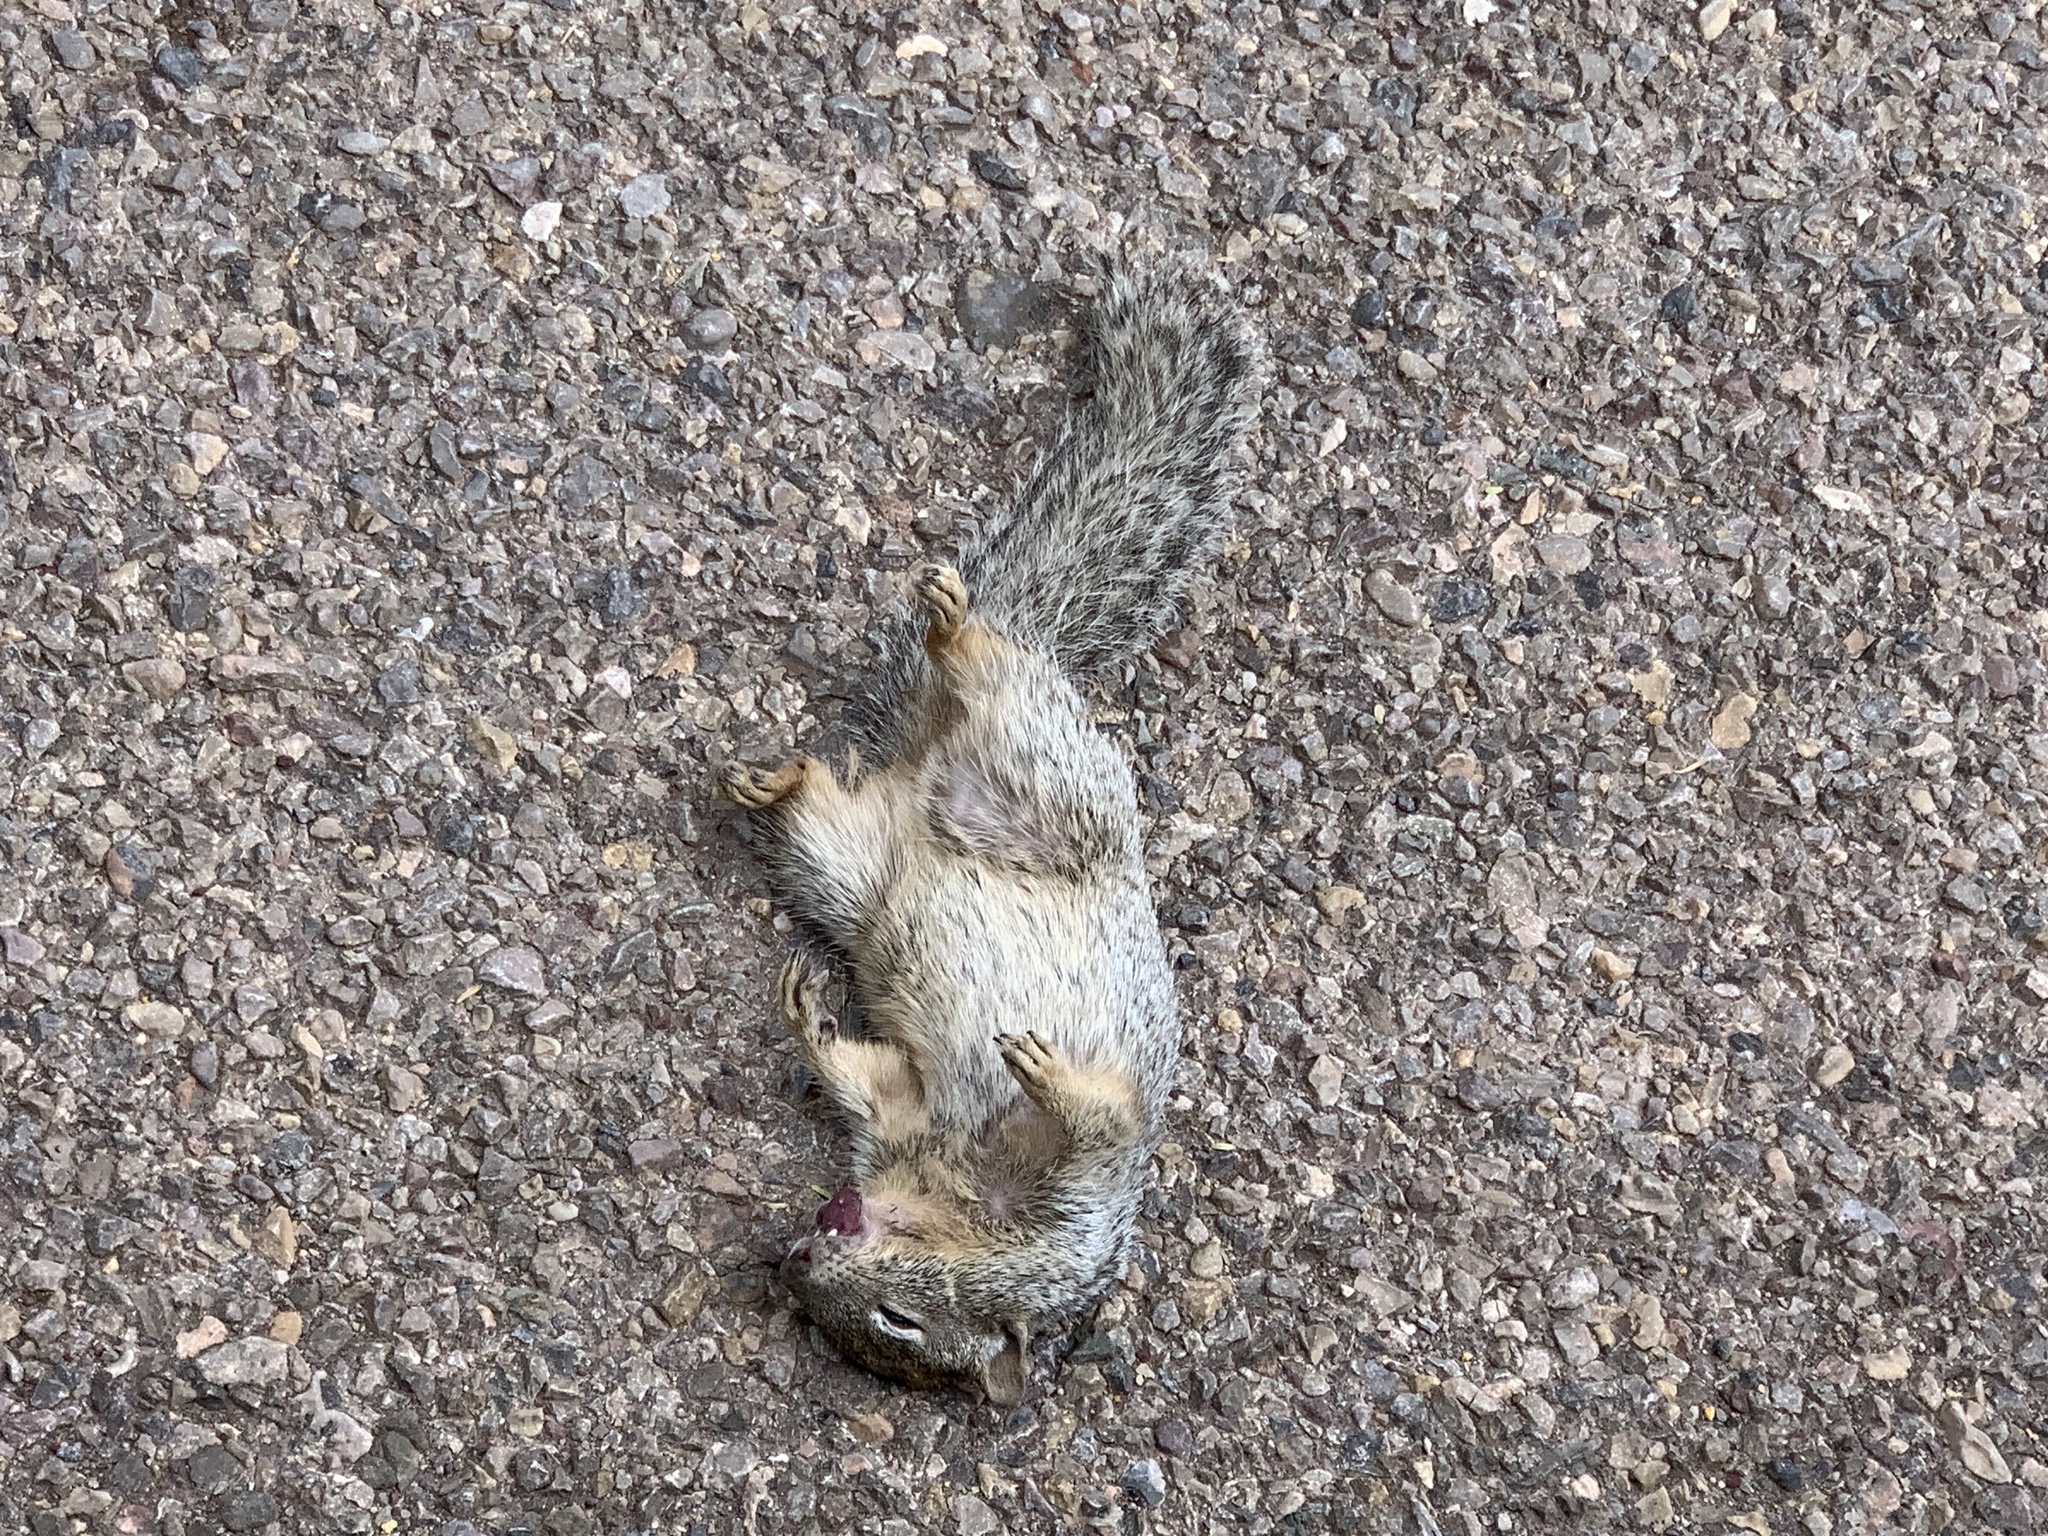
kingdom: Animalia
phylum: Chordata
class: Mammalia
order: Rodentia
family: Sciuridae
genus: Otospermophilus
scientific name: Otospermophilus variegatus
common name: Rock squirrel
